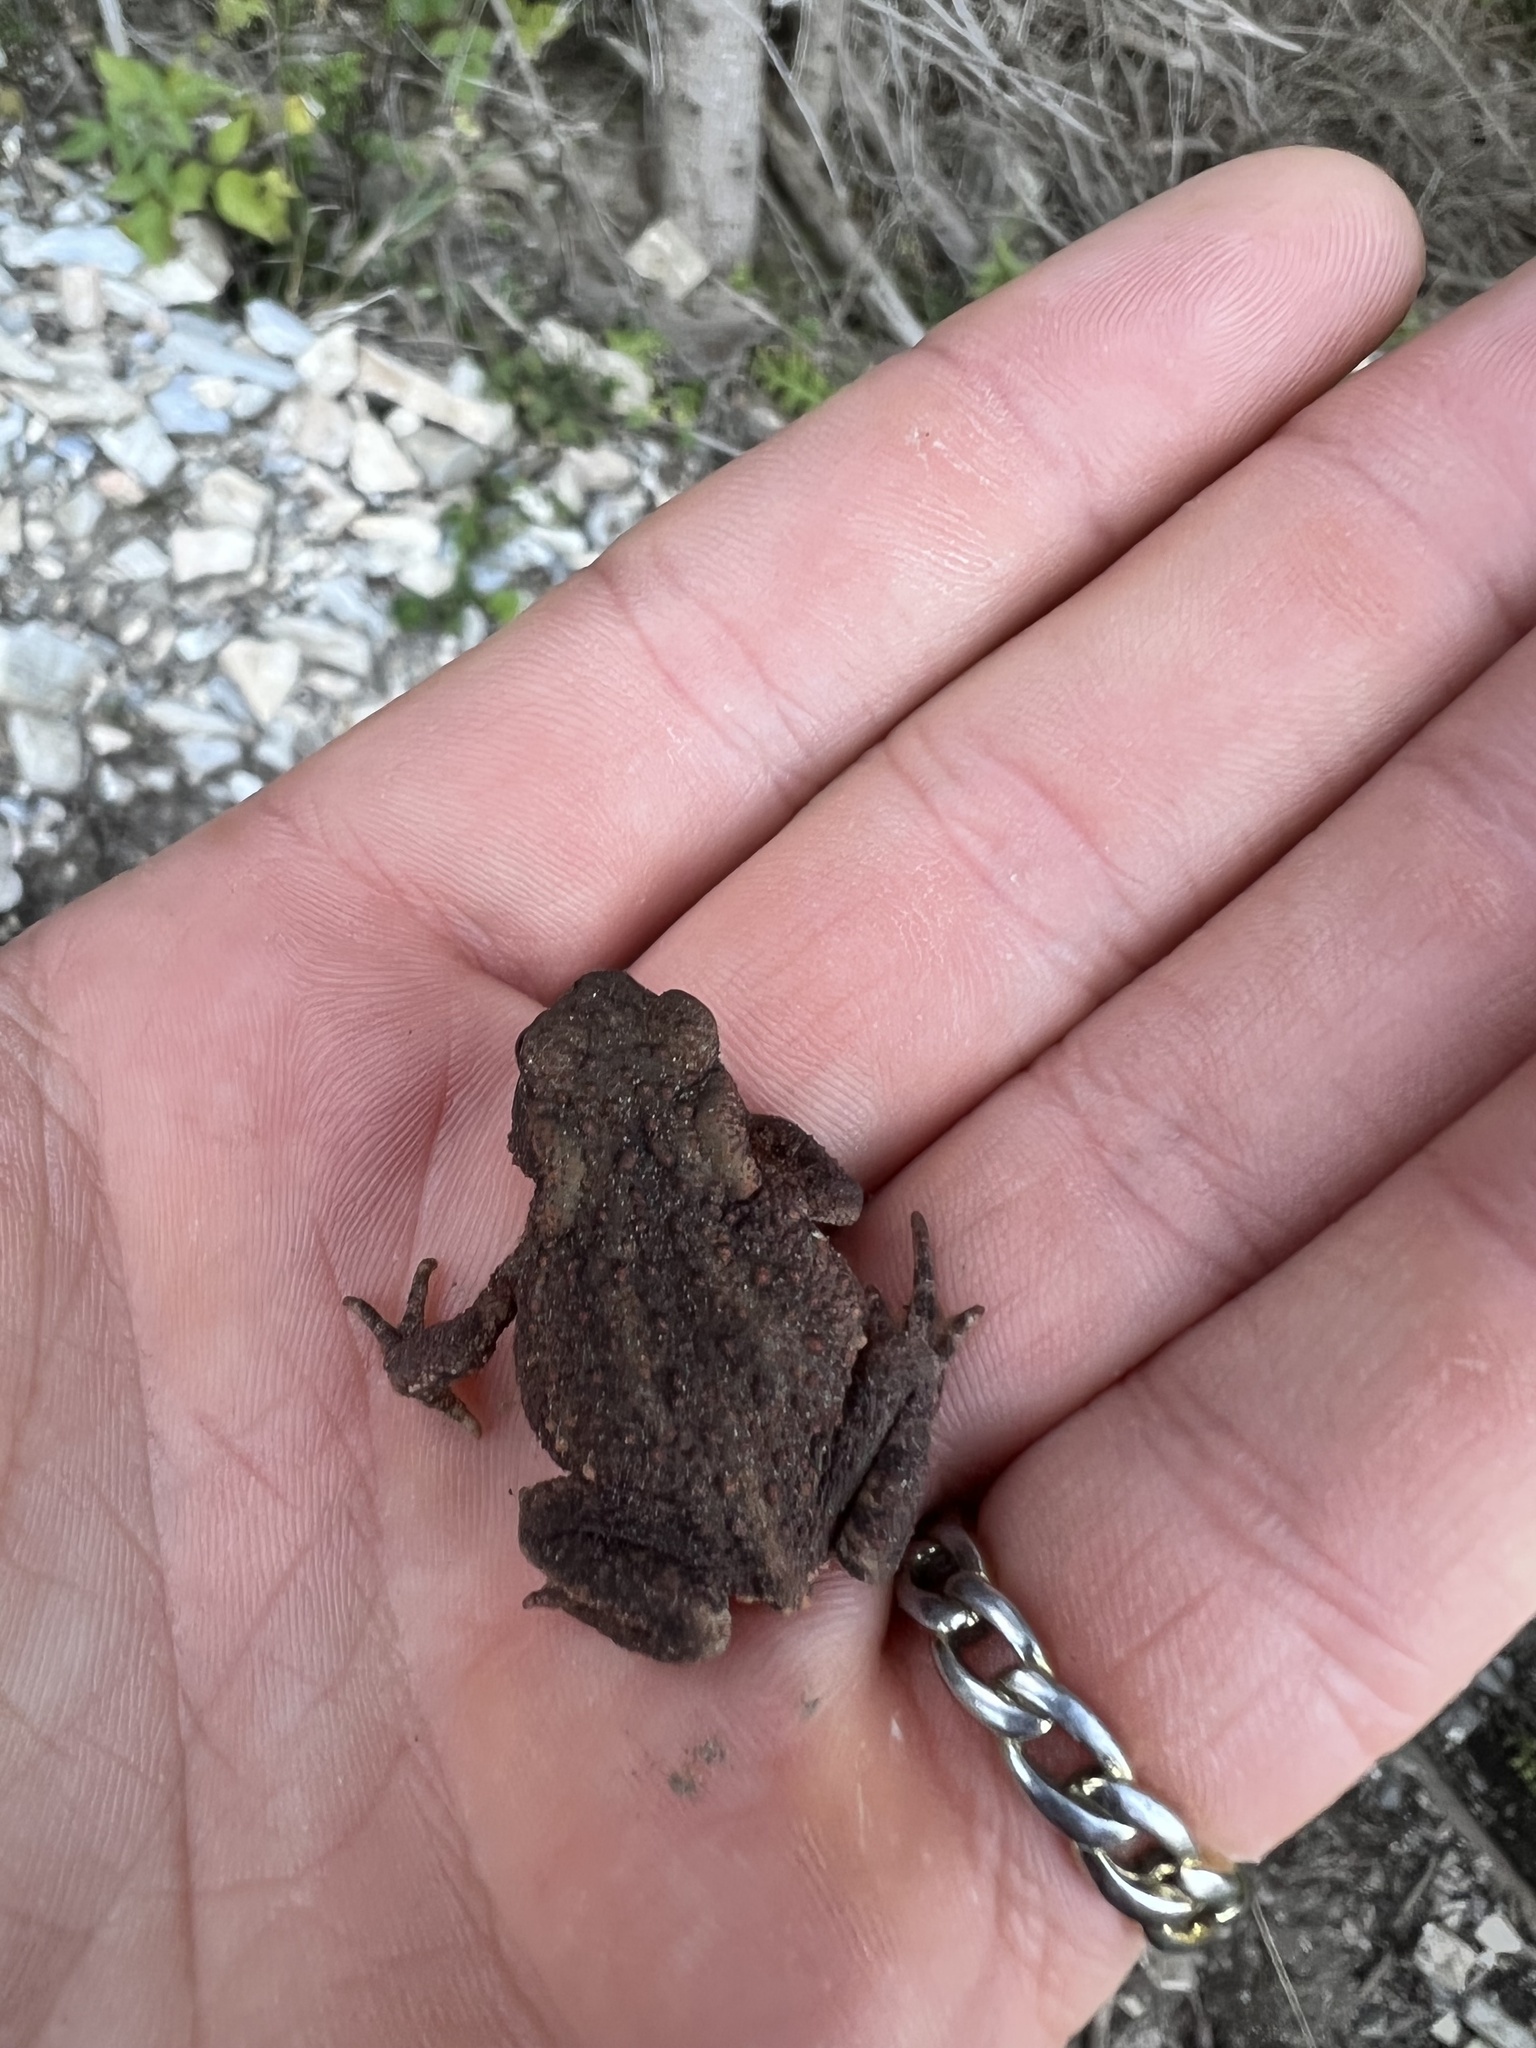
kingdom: Animalia
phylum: Chordata
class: Amphibia
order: Anura
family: Bufonidae
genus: Bufo
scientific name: Bufo bufo
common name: Common toad
